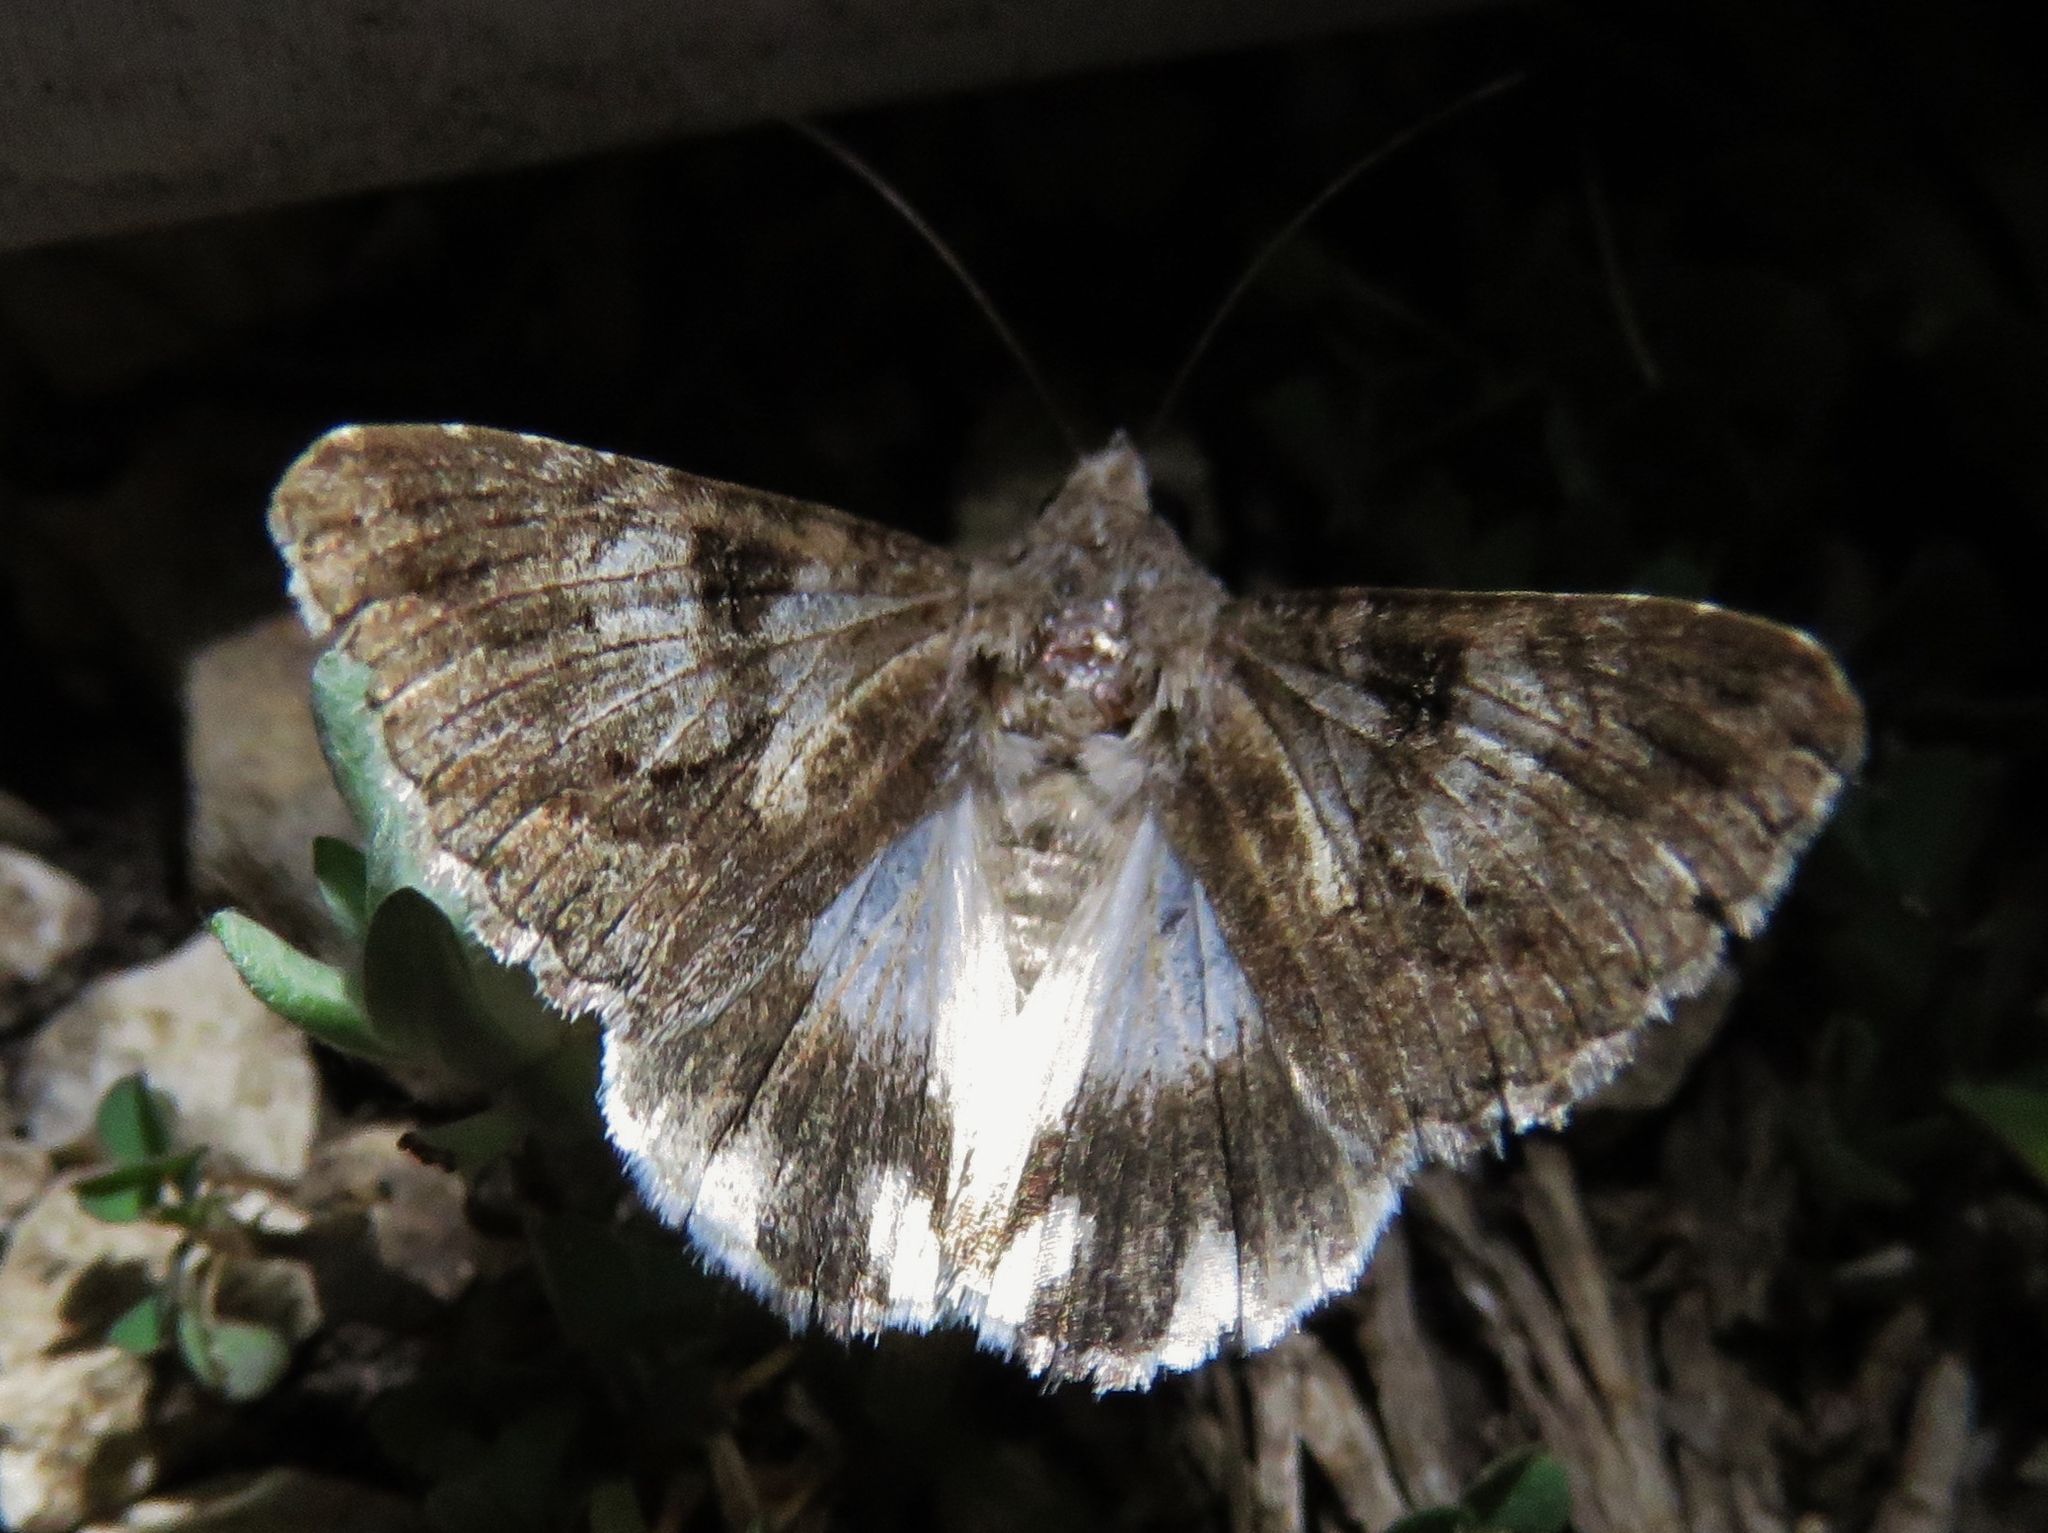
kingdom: Animalia
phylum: Arthropoda
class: Insecta
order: Lepidoptera
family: Erebidae
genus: Melipotis
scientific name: Melipotis jucunda
